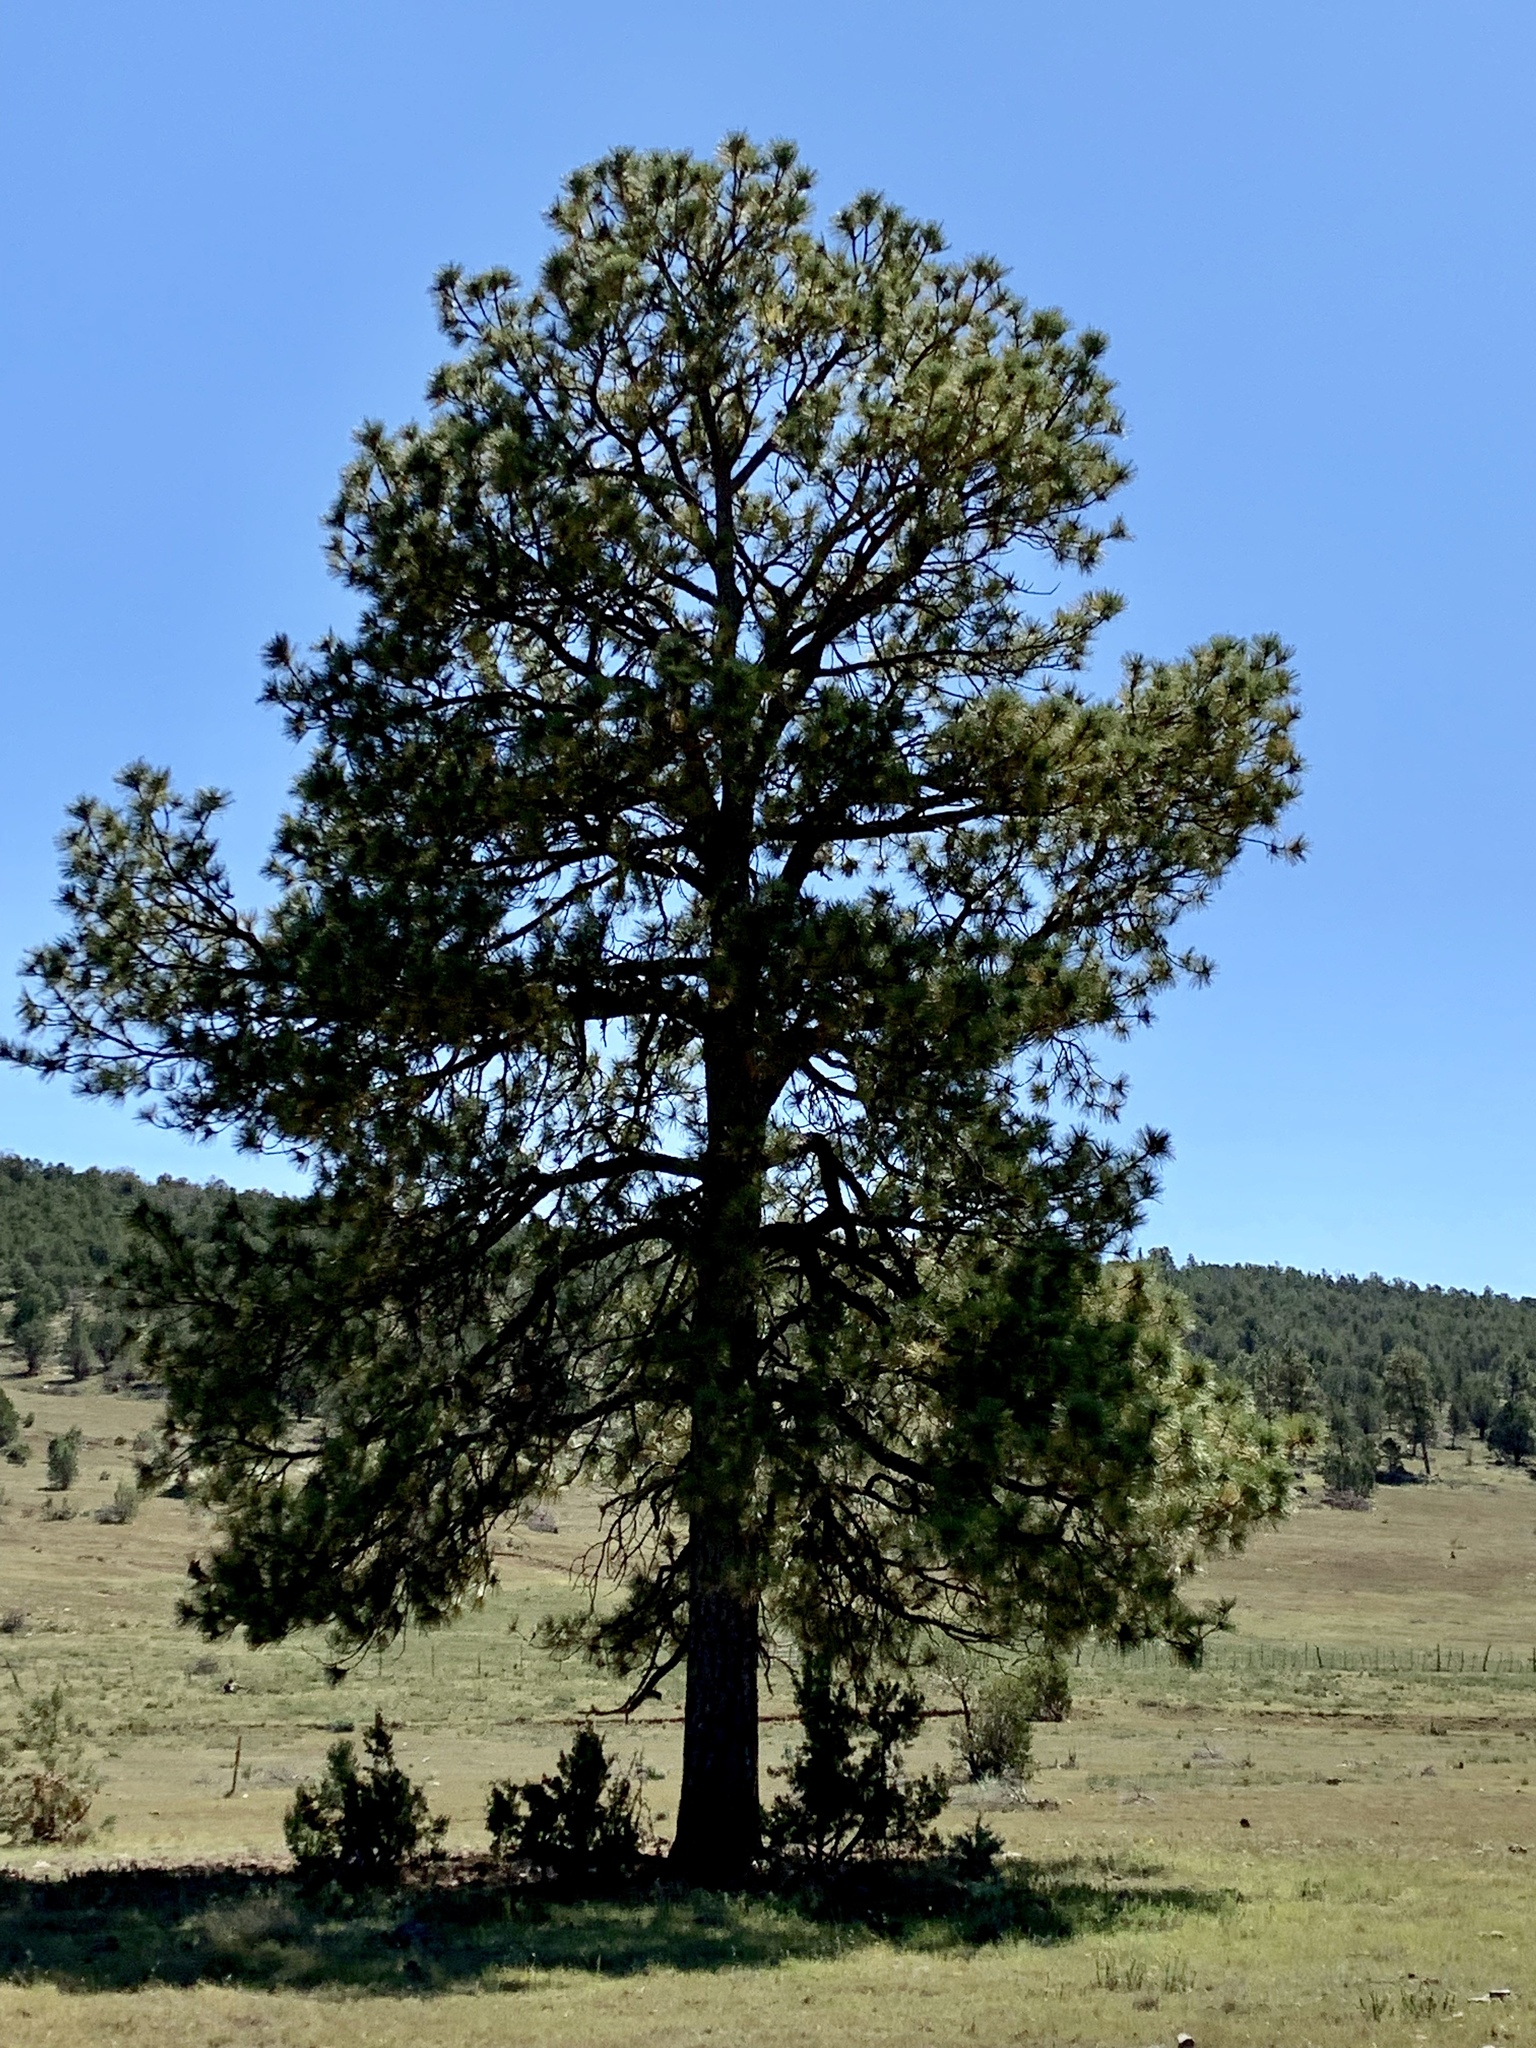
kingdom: Plantae
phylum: Tracheophyta
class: Pinopsida
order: Pinales
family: Pinaceae
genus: Pinus
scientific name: Pinus ponderosa
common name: Western yellow-pine
